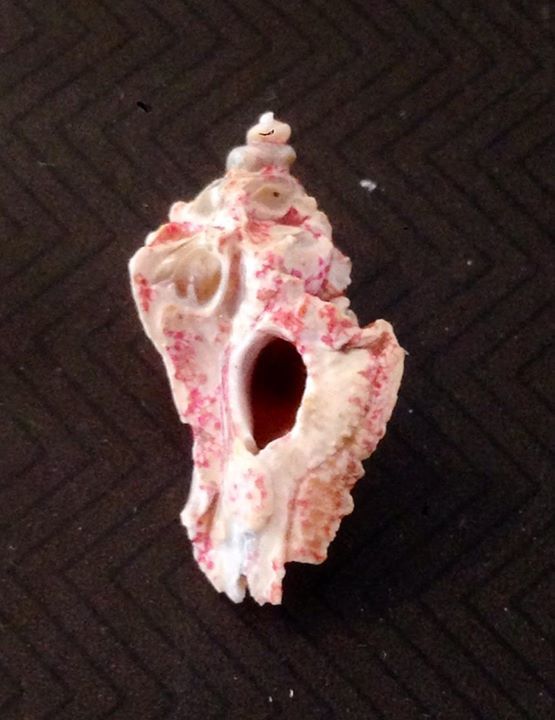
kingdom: Animalia
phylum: Mollusca
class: Gastropoda
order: Neogastropoda
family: Muricidae
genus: Typhinellus
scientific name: Typhinellus labiatus
